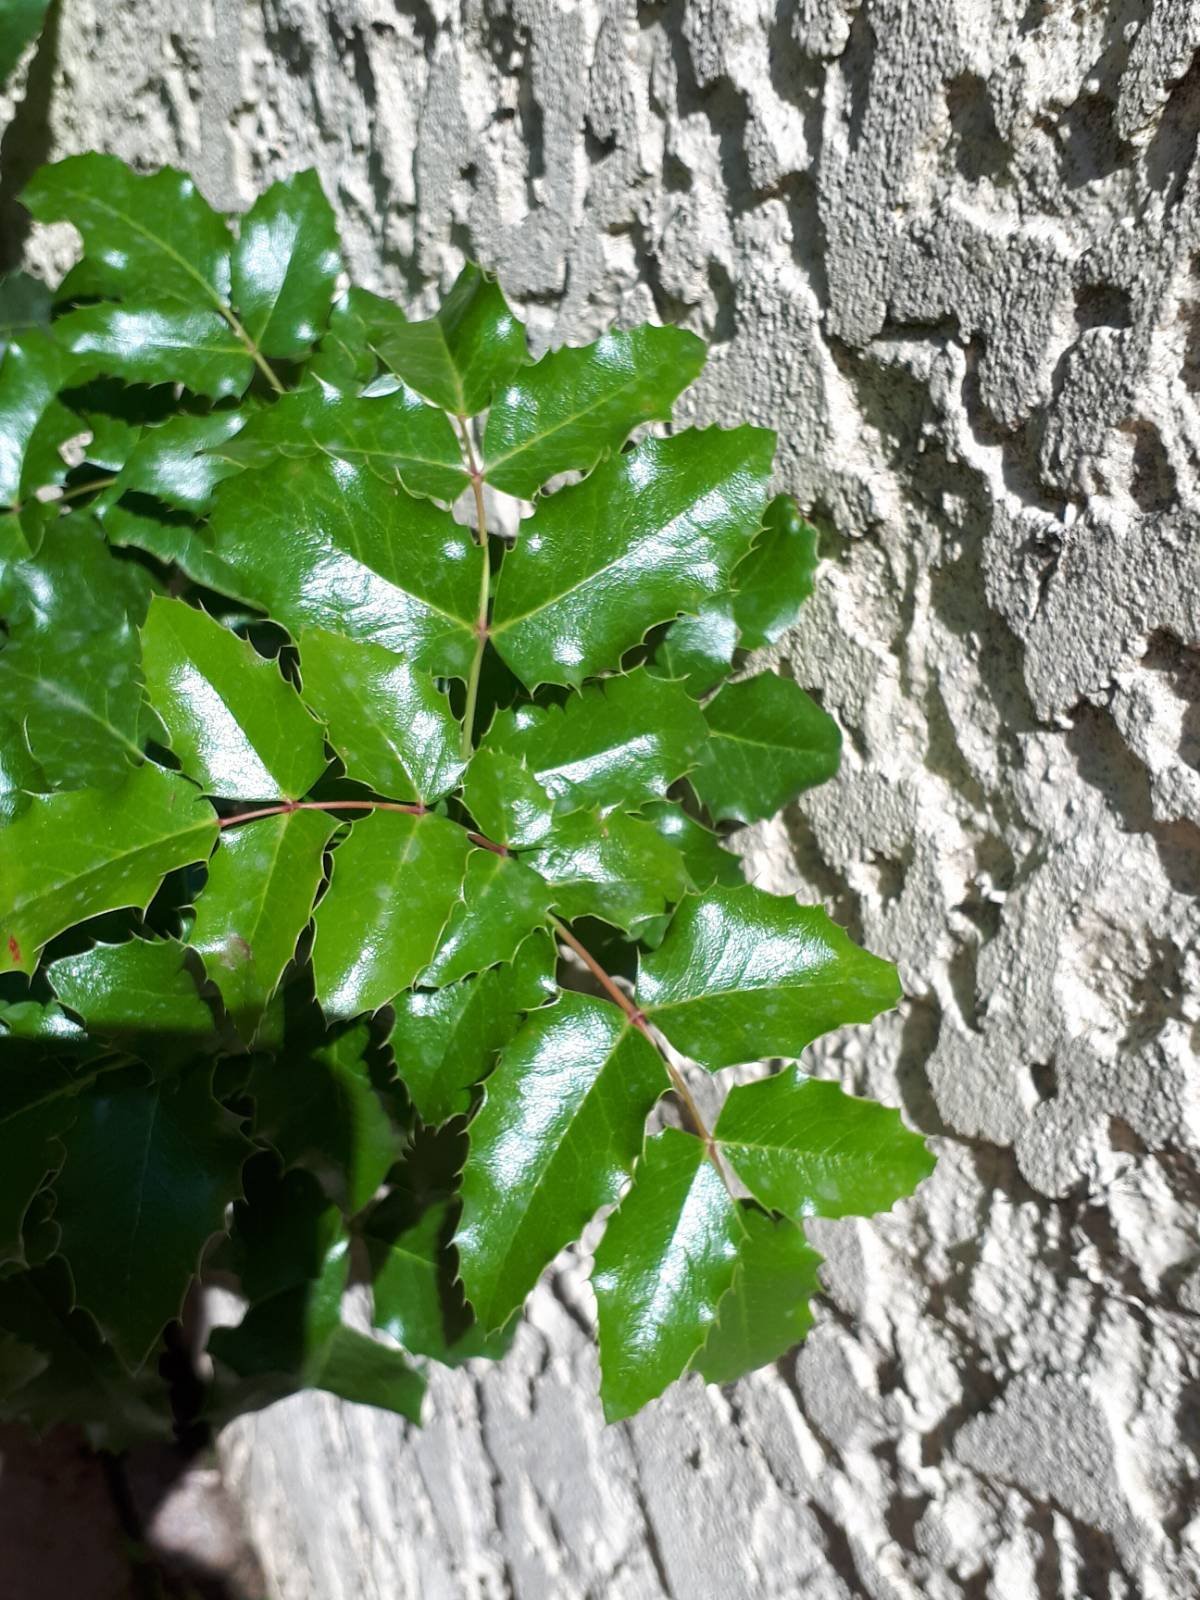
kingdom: Plantae
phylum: Tracheophyta
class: Magnoliopsida
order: Ranunculales
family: Berberidaceae
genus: Mahonia
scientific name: Mahonia aquifolium
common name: Oregon-grape
